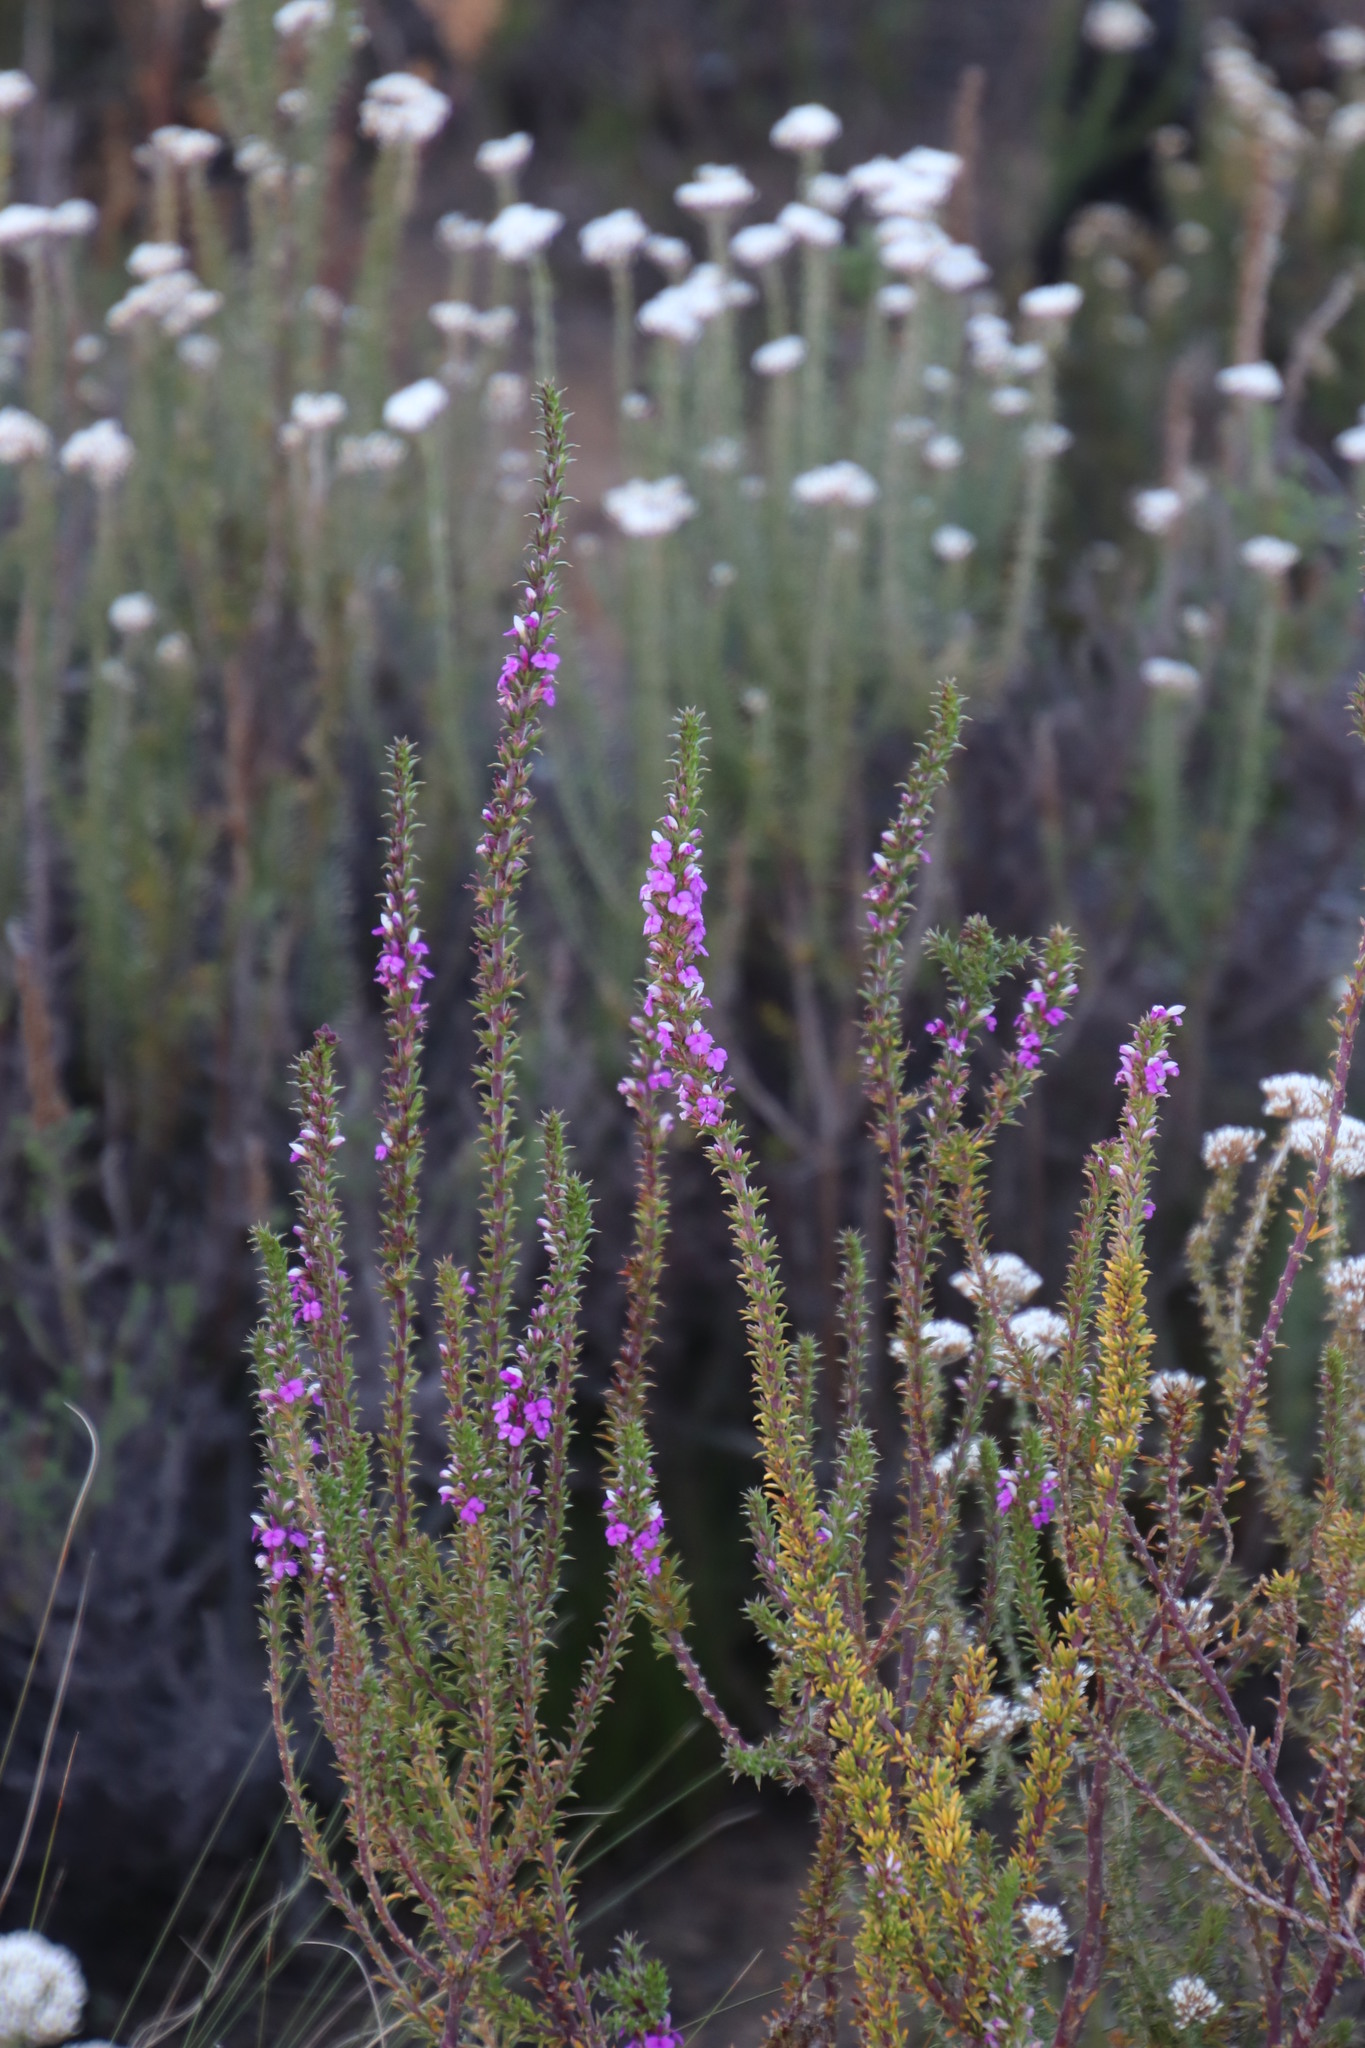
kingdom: Plantae
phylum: Tracheophyta
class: Magnoliopsida
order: Fabales
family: Polygalaceae
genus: Muraltia
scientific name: Muraltia heisteria
